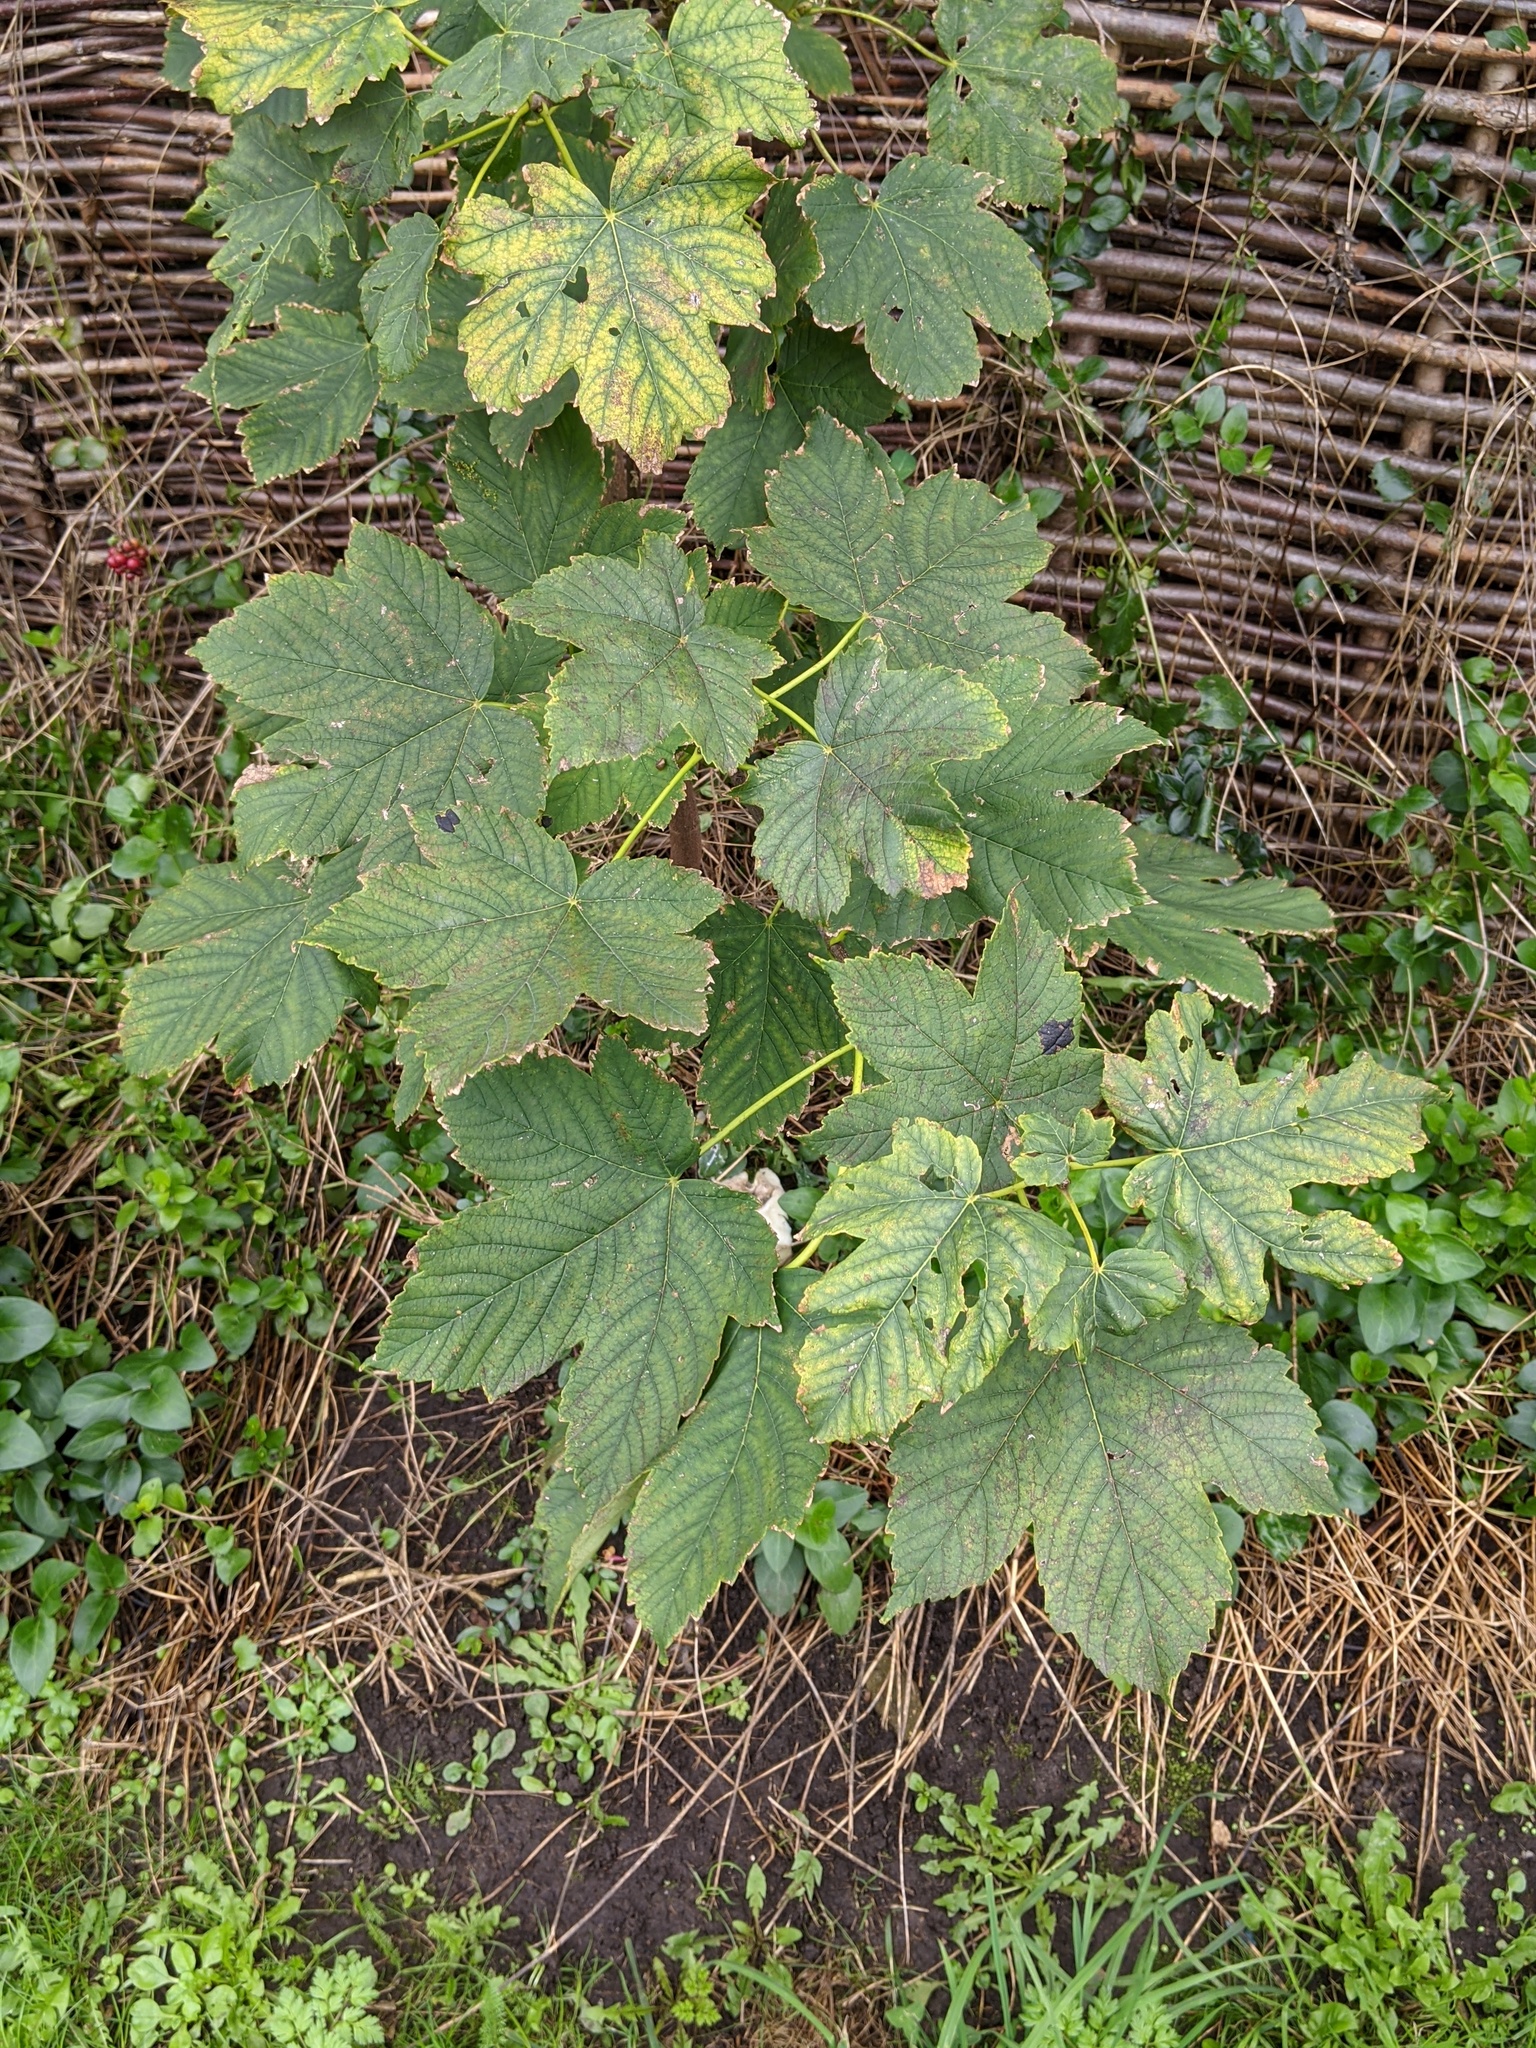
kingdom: Plantae
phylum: Tracheophyta
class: Magnoliopsida
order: Sapindales
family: Sapindaceae
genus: Acer
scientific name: Acer pseudoplatanus
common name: Sycamore
